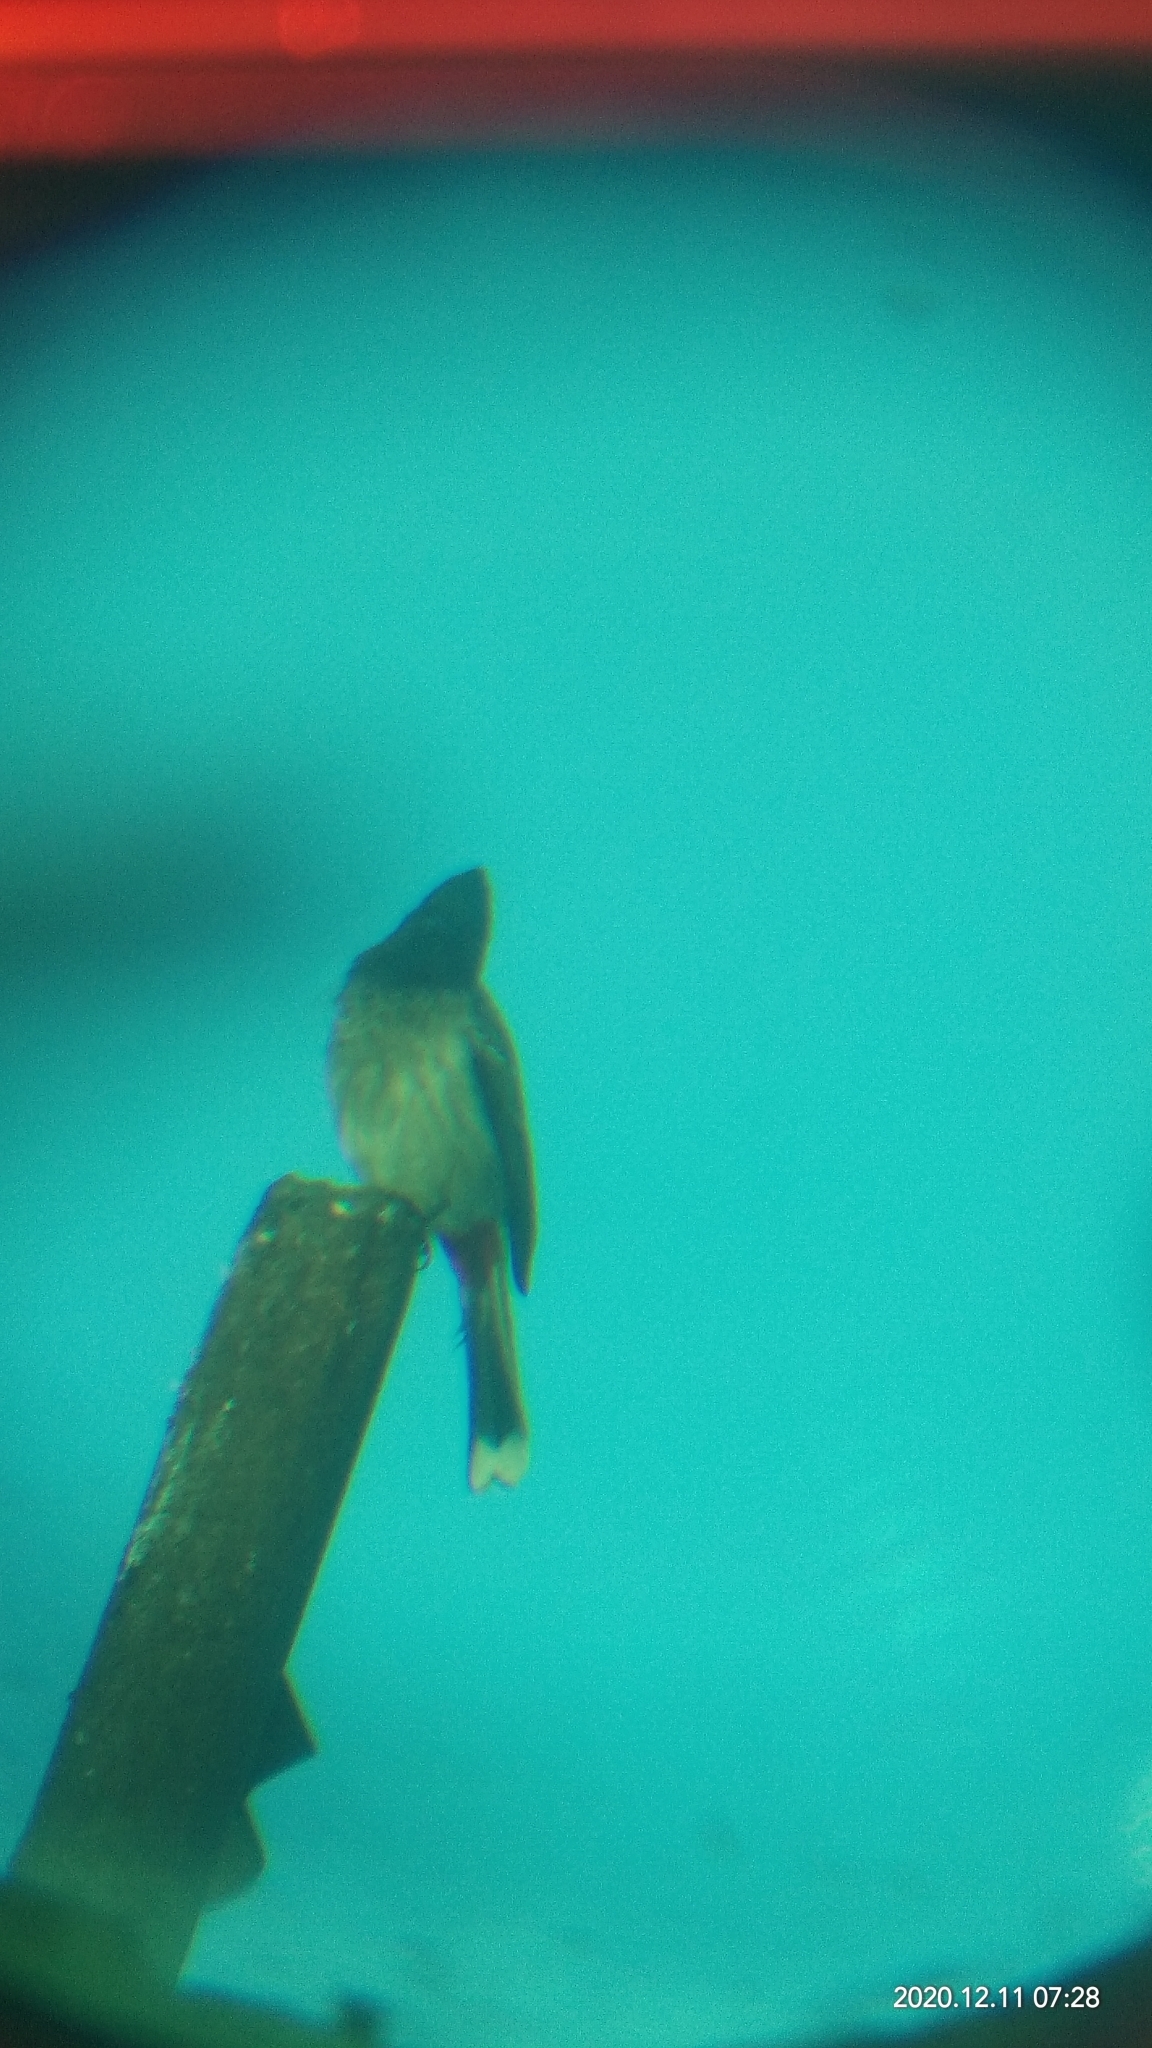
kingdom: Animalia
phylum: Chordata
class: Aves
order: Passeriformes
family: Pycnonotidae
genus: Pycnonotus
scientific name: Pycnonotus cafer
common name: Red-vented bulbul
